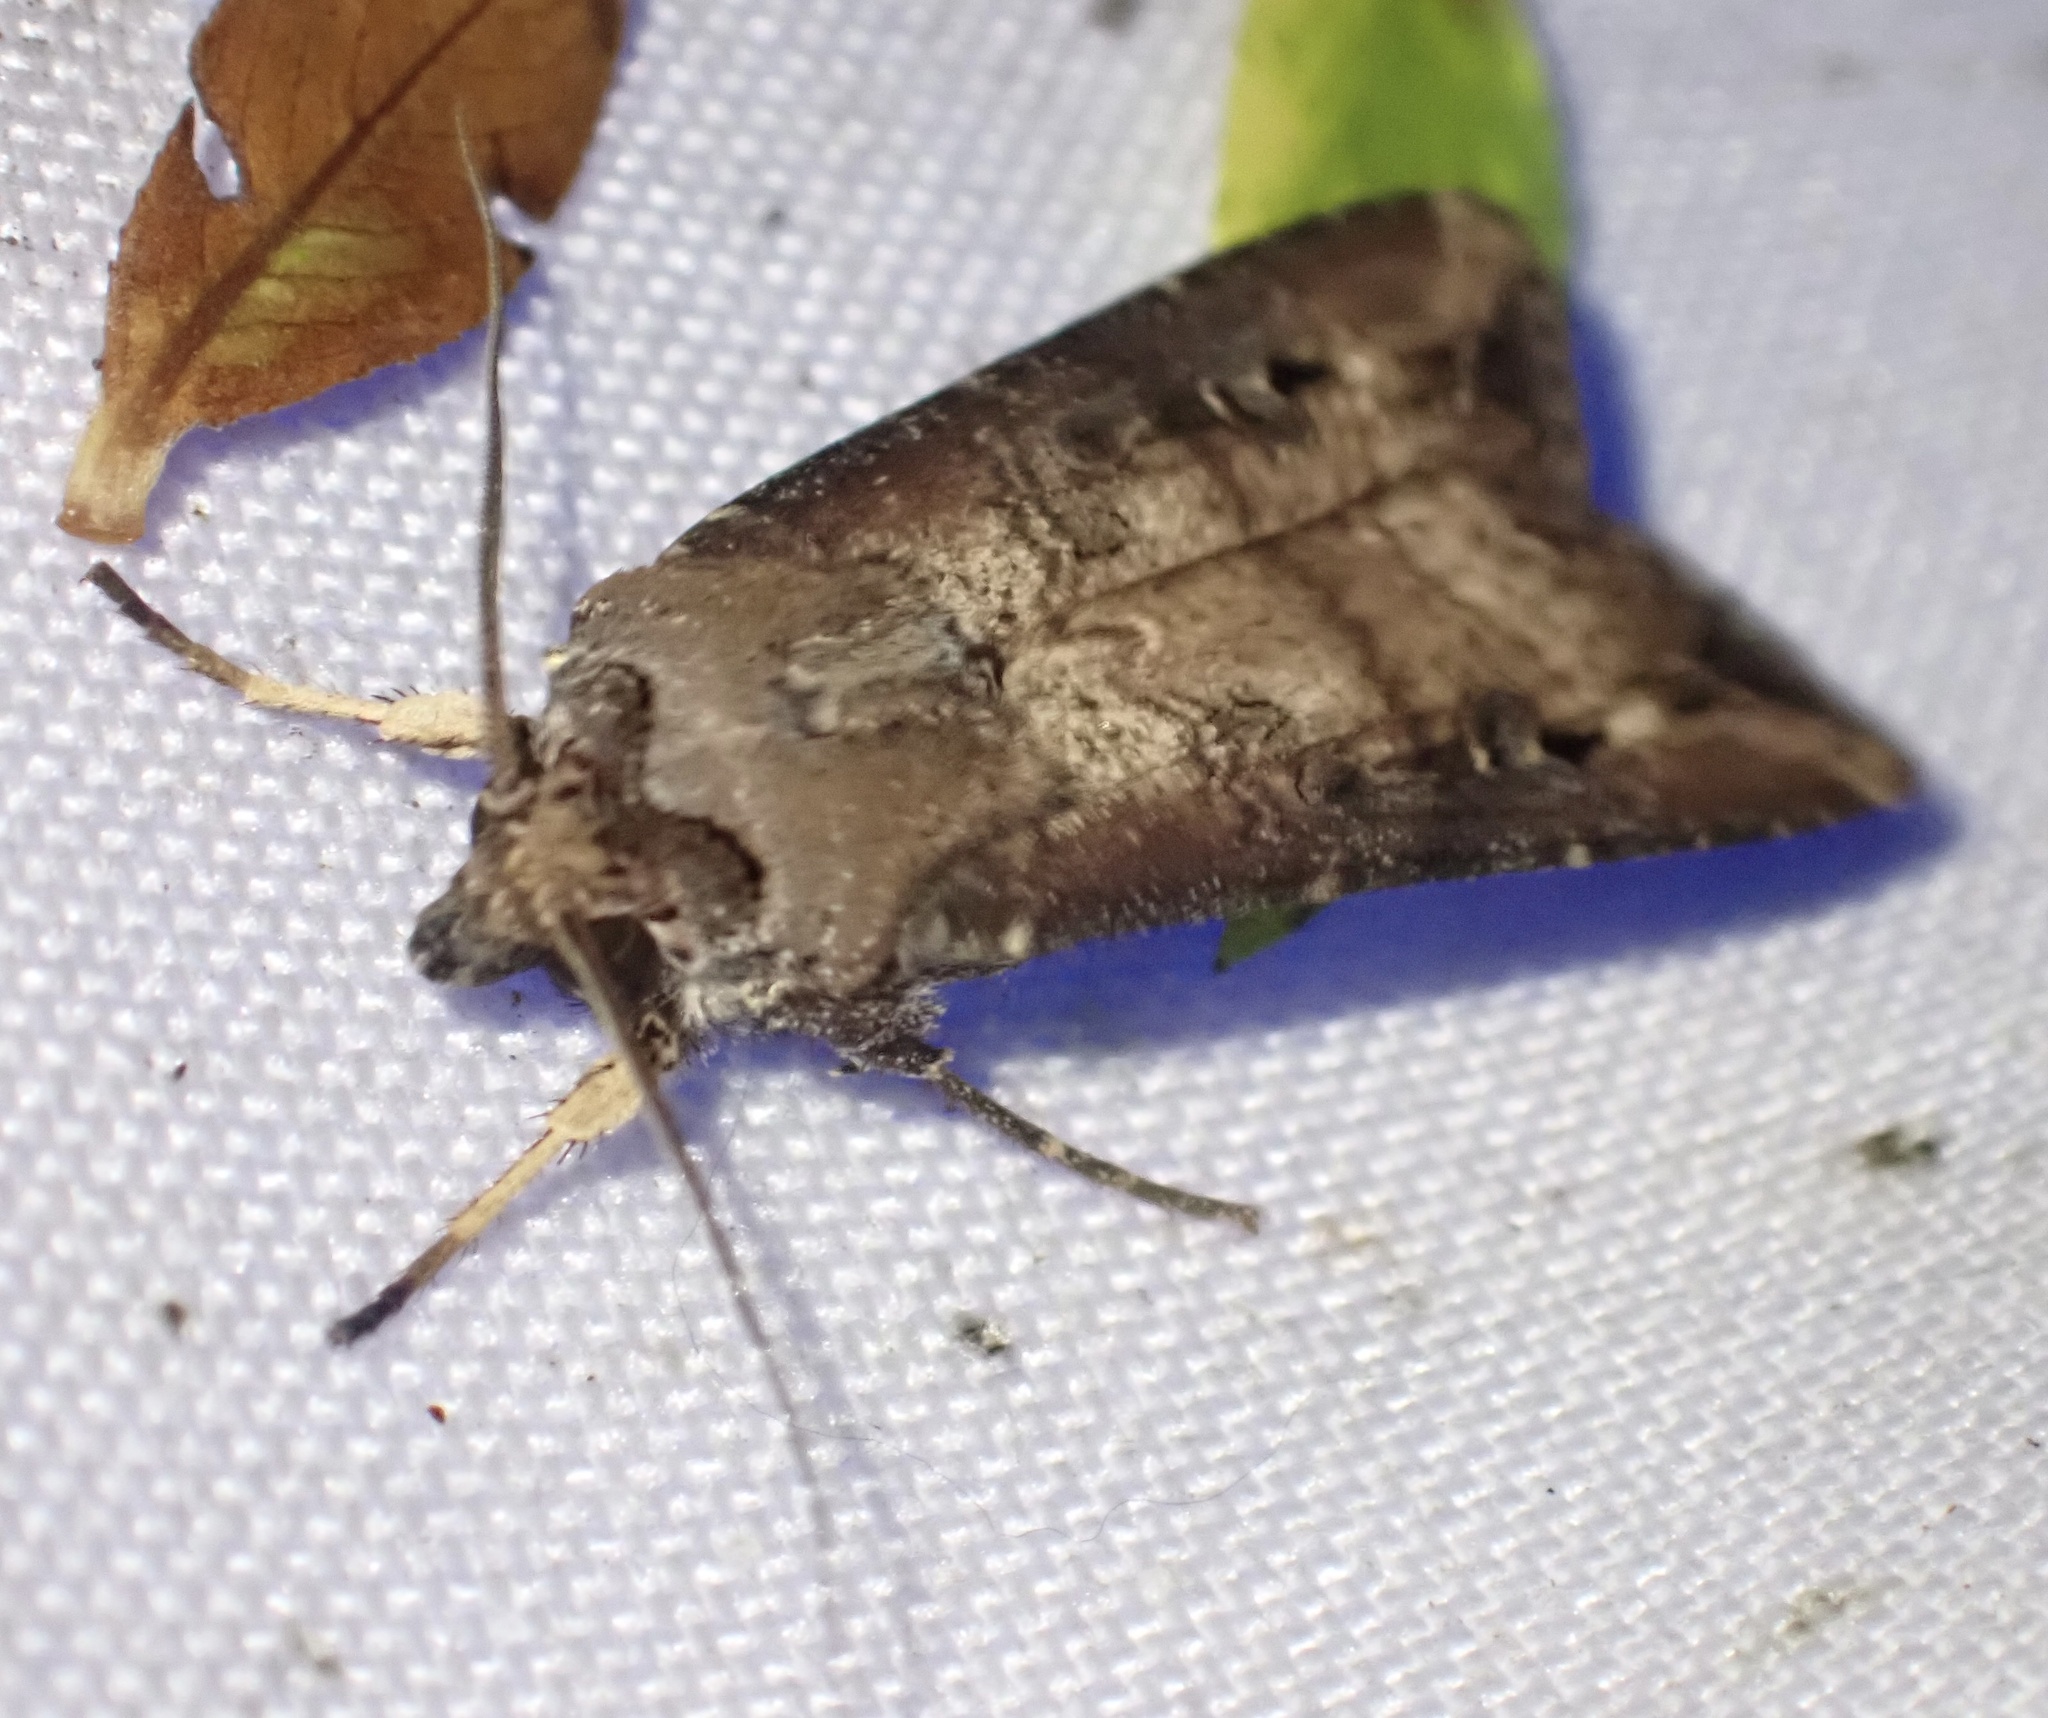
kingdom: Animalia
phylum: Arthropoda
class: Insecta
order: Lepidoptera
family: Noctuidae
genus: Agrotis
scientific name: Agrotis ipsilon
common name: Dark sword-grass
